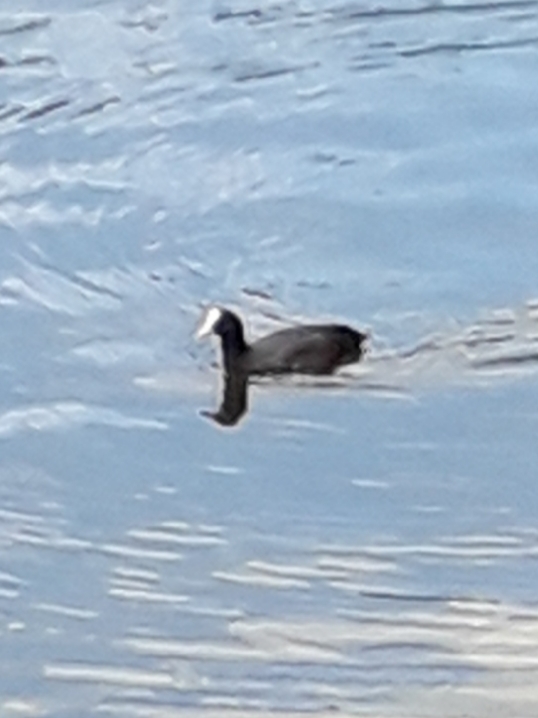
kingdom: Animalia
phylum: Chordata
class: Aves
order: Gruiformes
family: Rallidae
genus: Fulica
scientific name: Fulica atra
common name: Eurasian coot
